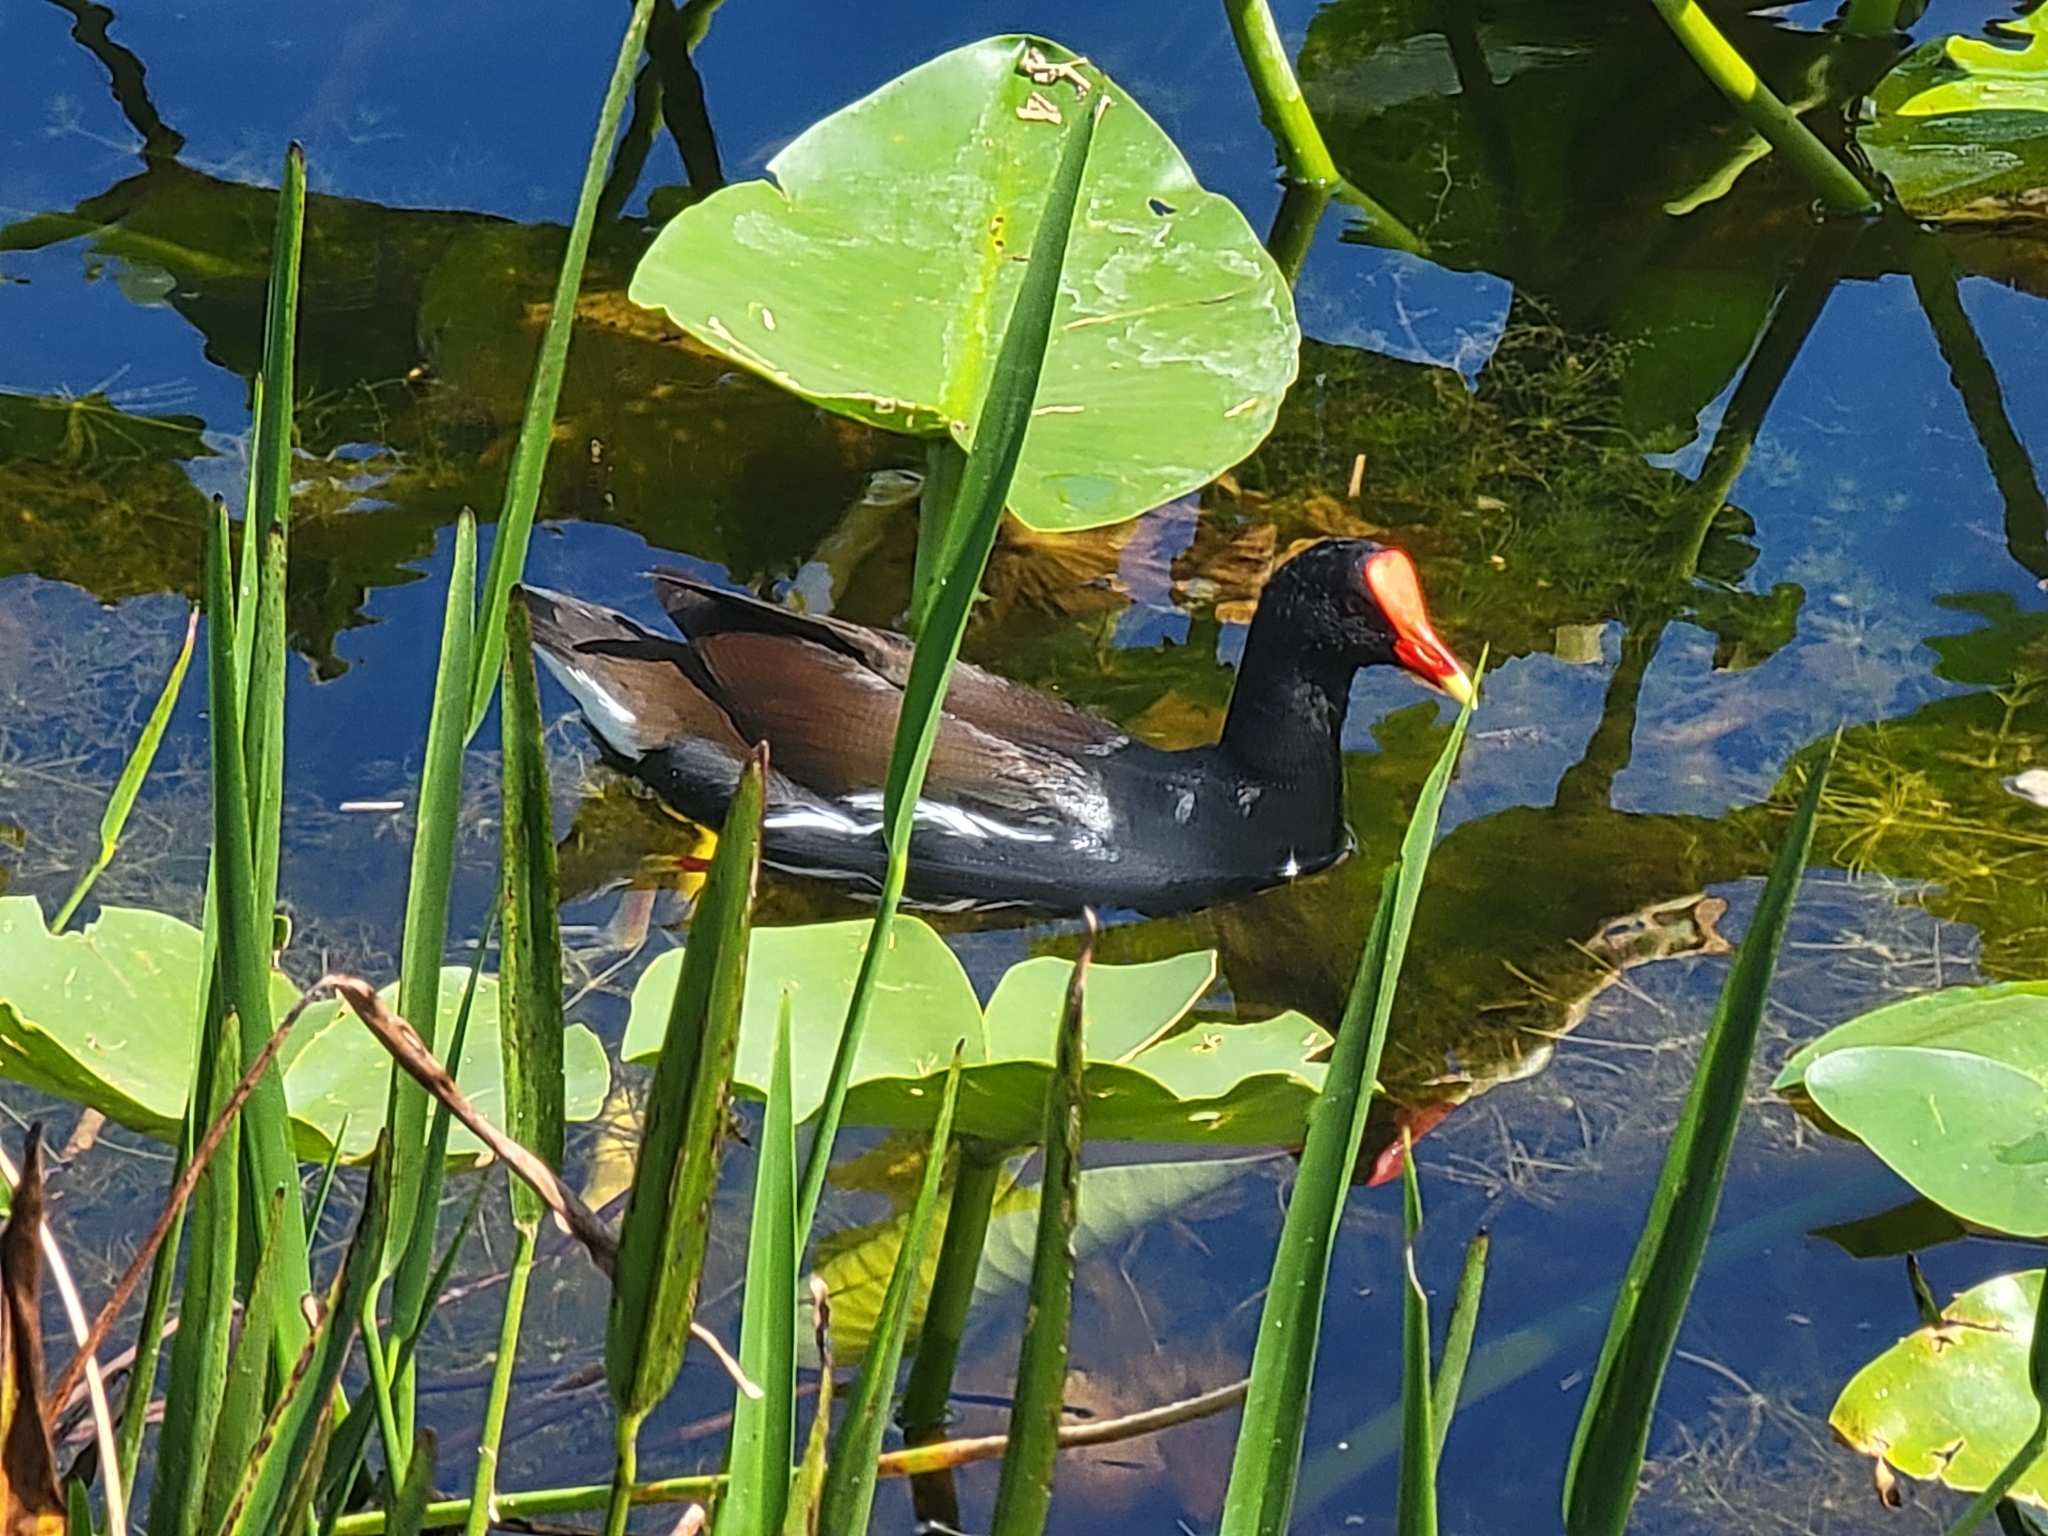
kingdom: Animalia
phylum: Chordata
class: Aves
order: Gruiformes
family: Rallidae
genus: Gallinula
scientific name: Gallinula chloropus
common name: Common moorhen
